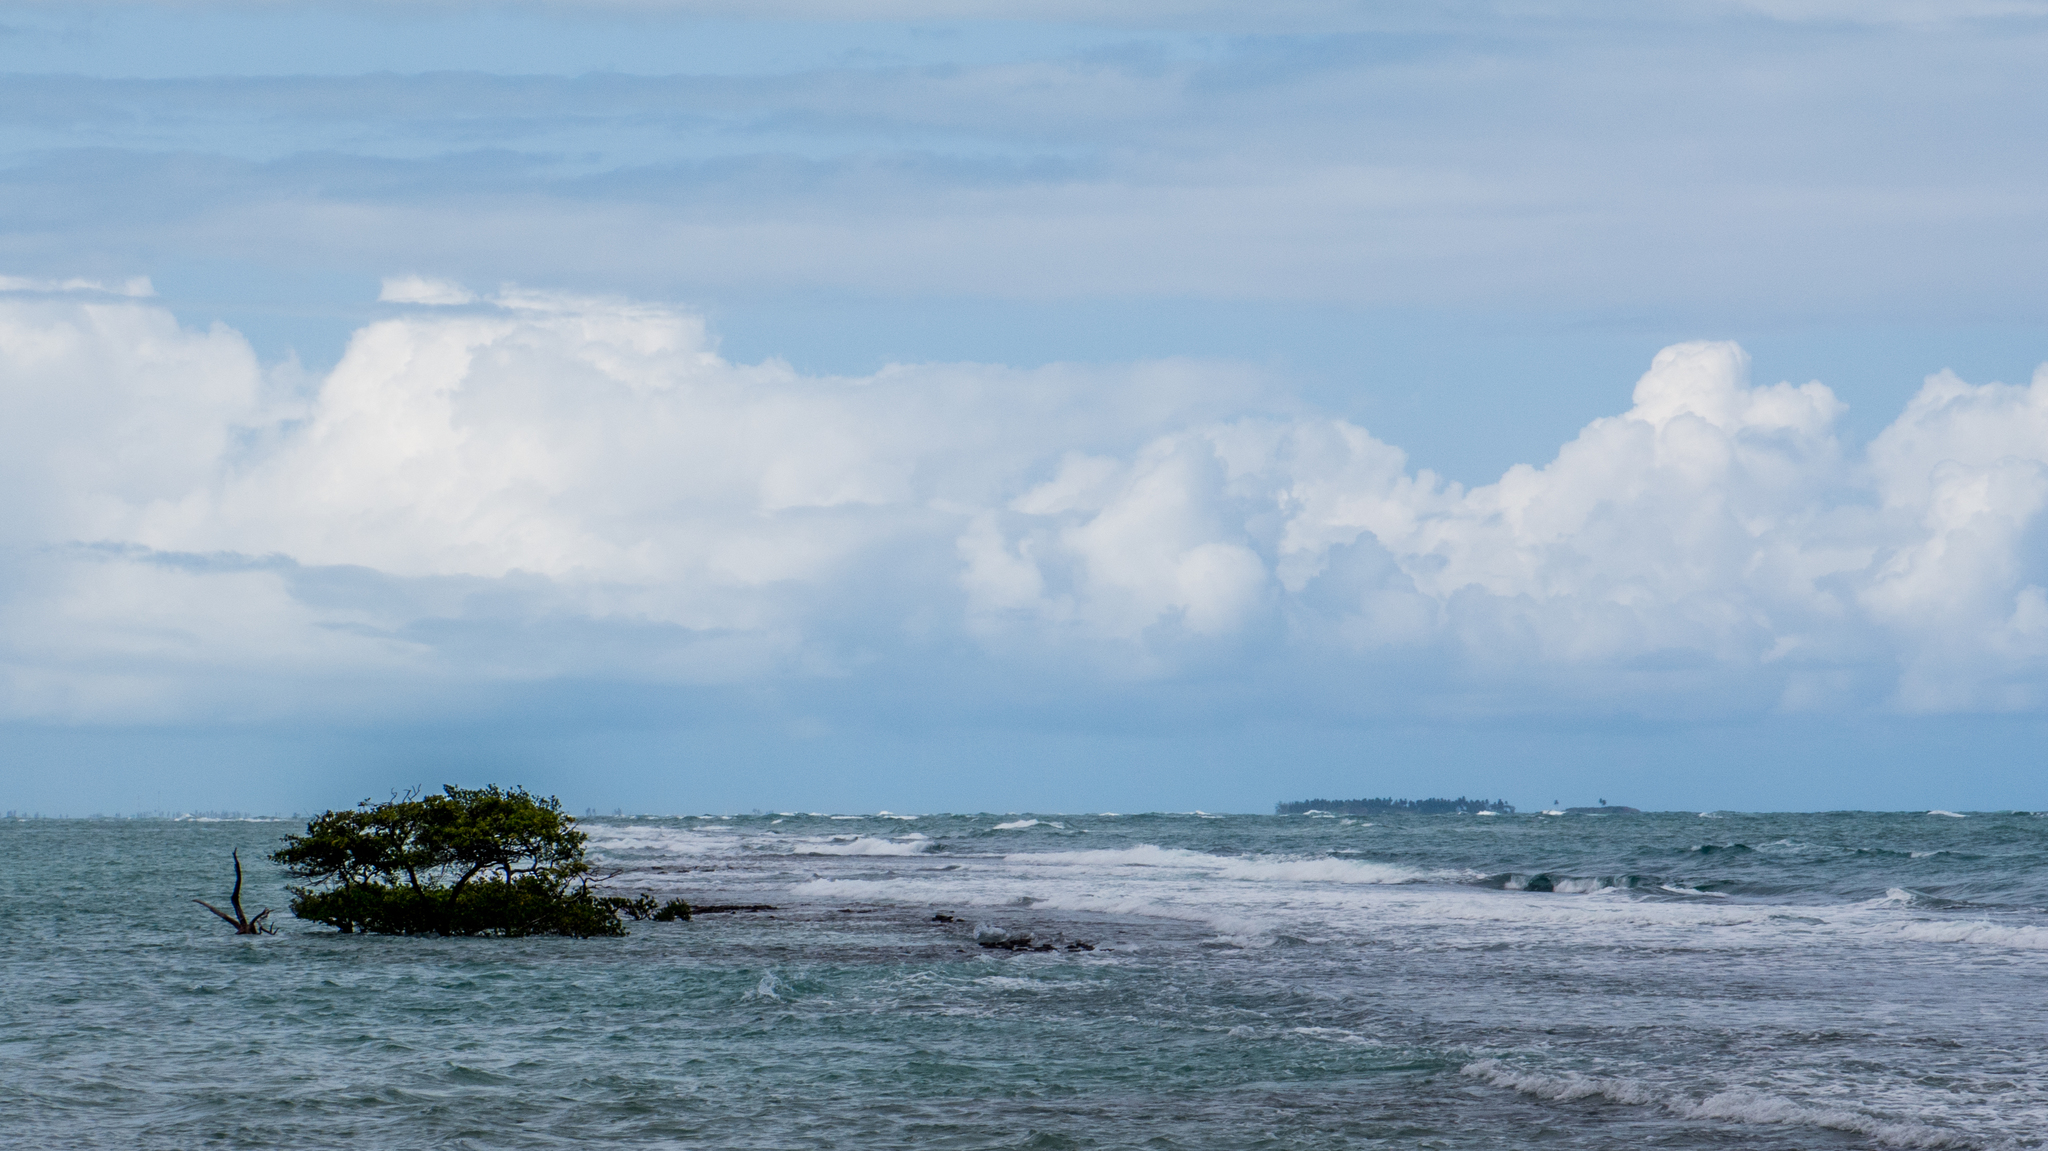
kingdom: Plantae
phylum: Tracheophyta
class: Magnoliopsida
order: Myrtales
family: Combretaceae
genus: Laguncularia
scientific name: Laguncularia racemosa
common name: White mangrove
